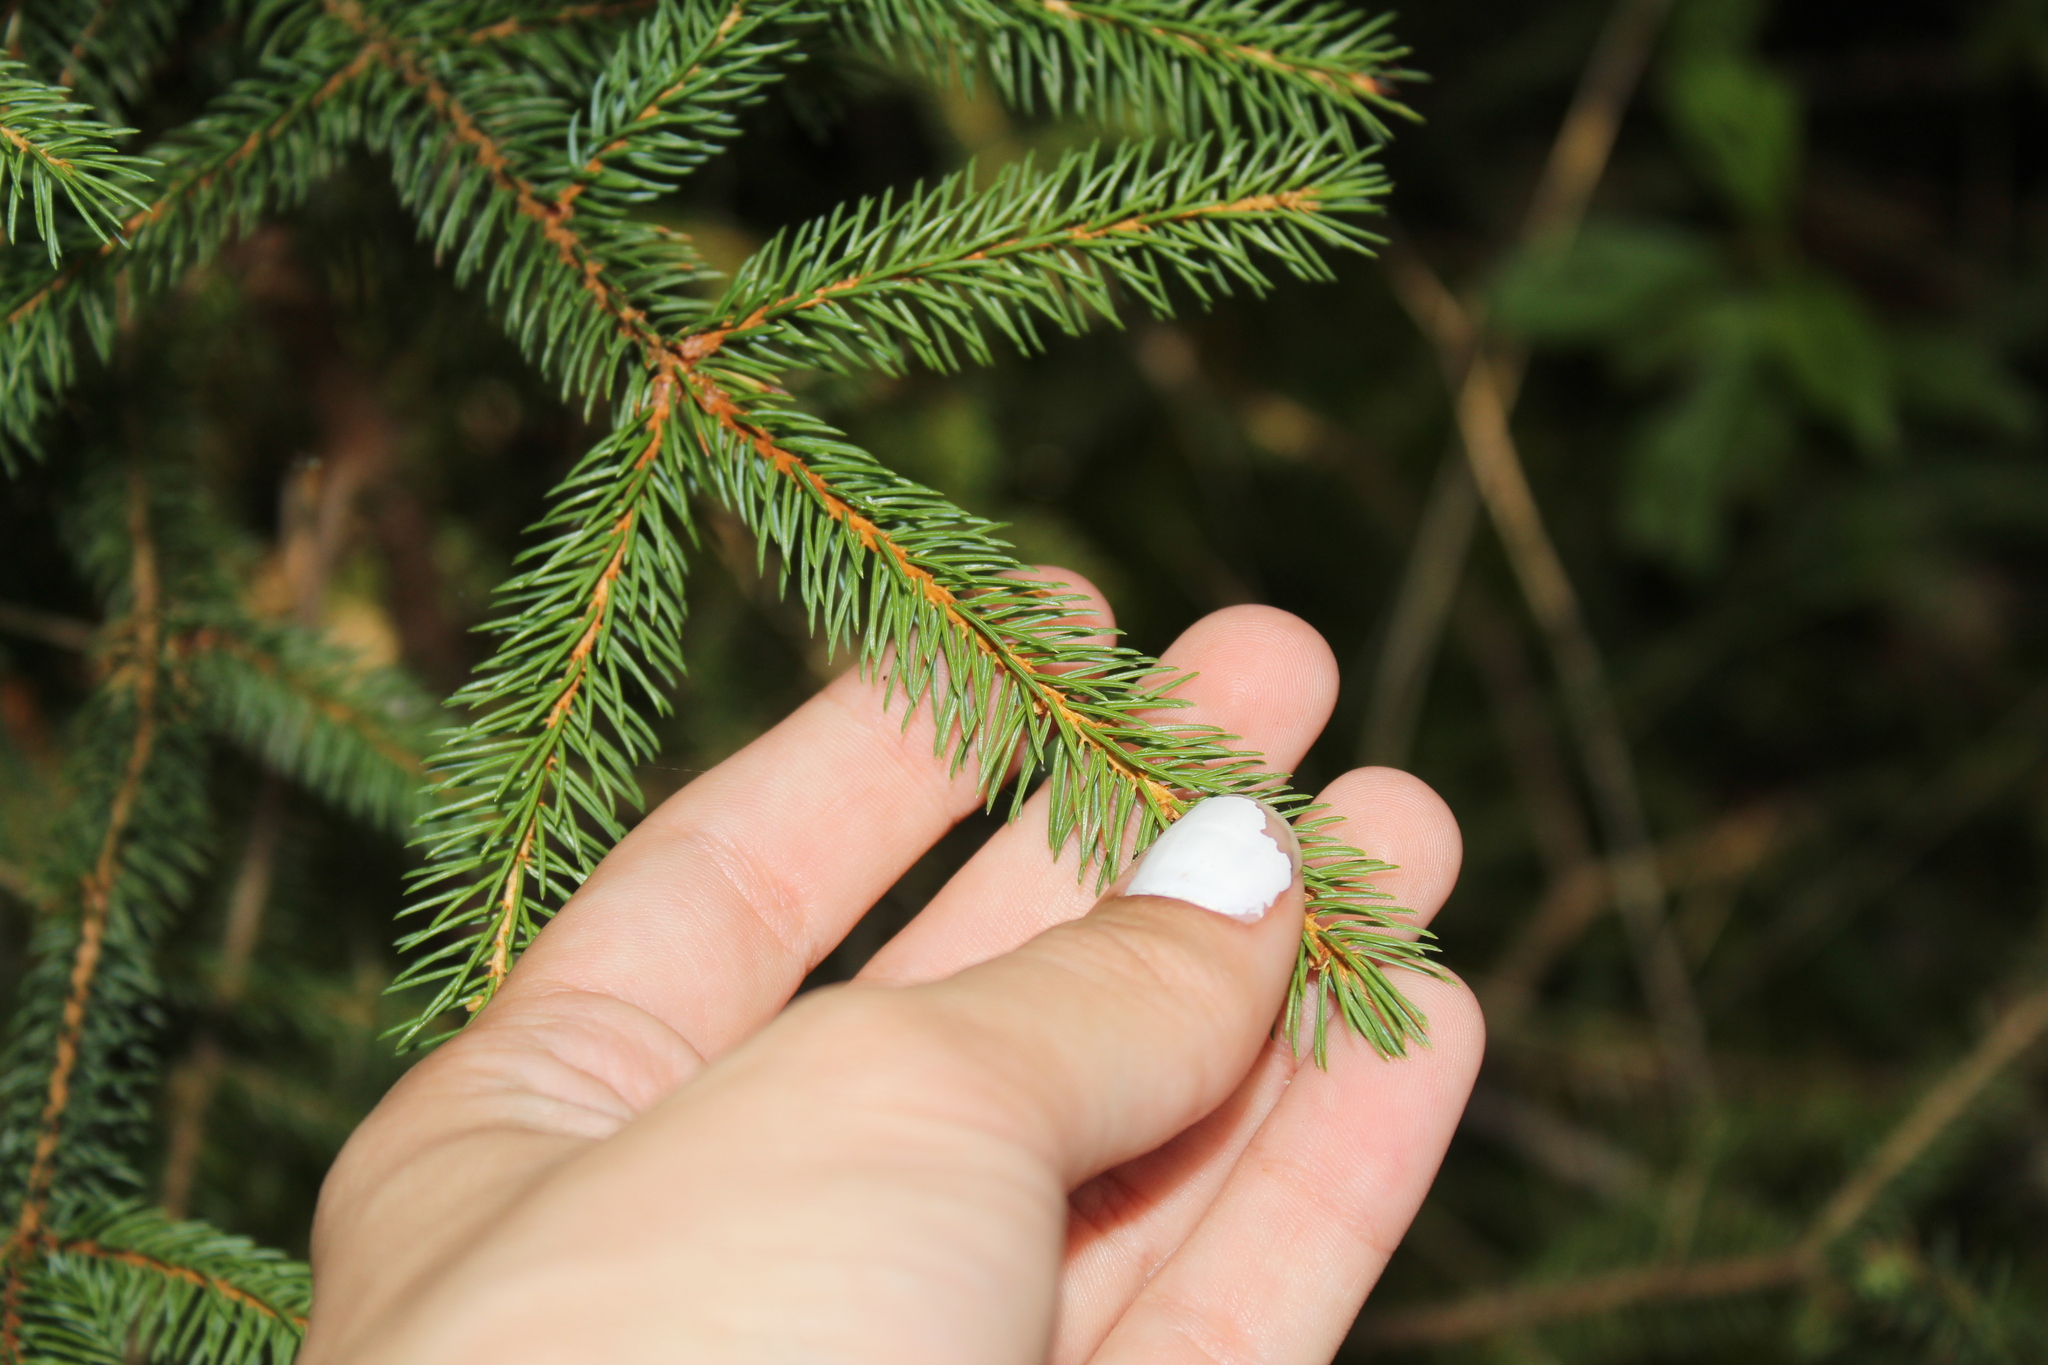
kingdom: Plantae
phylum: Tracheophyta
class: Pinopsida
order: Pinales
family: Pinaceae
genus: Picea
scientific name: Picea rubens
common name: Red spruce
